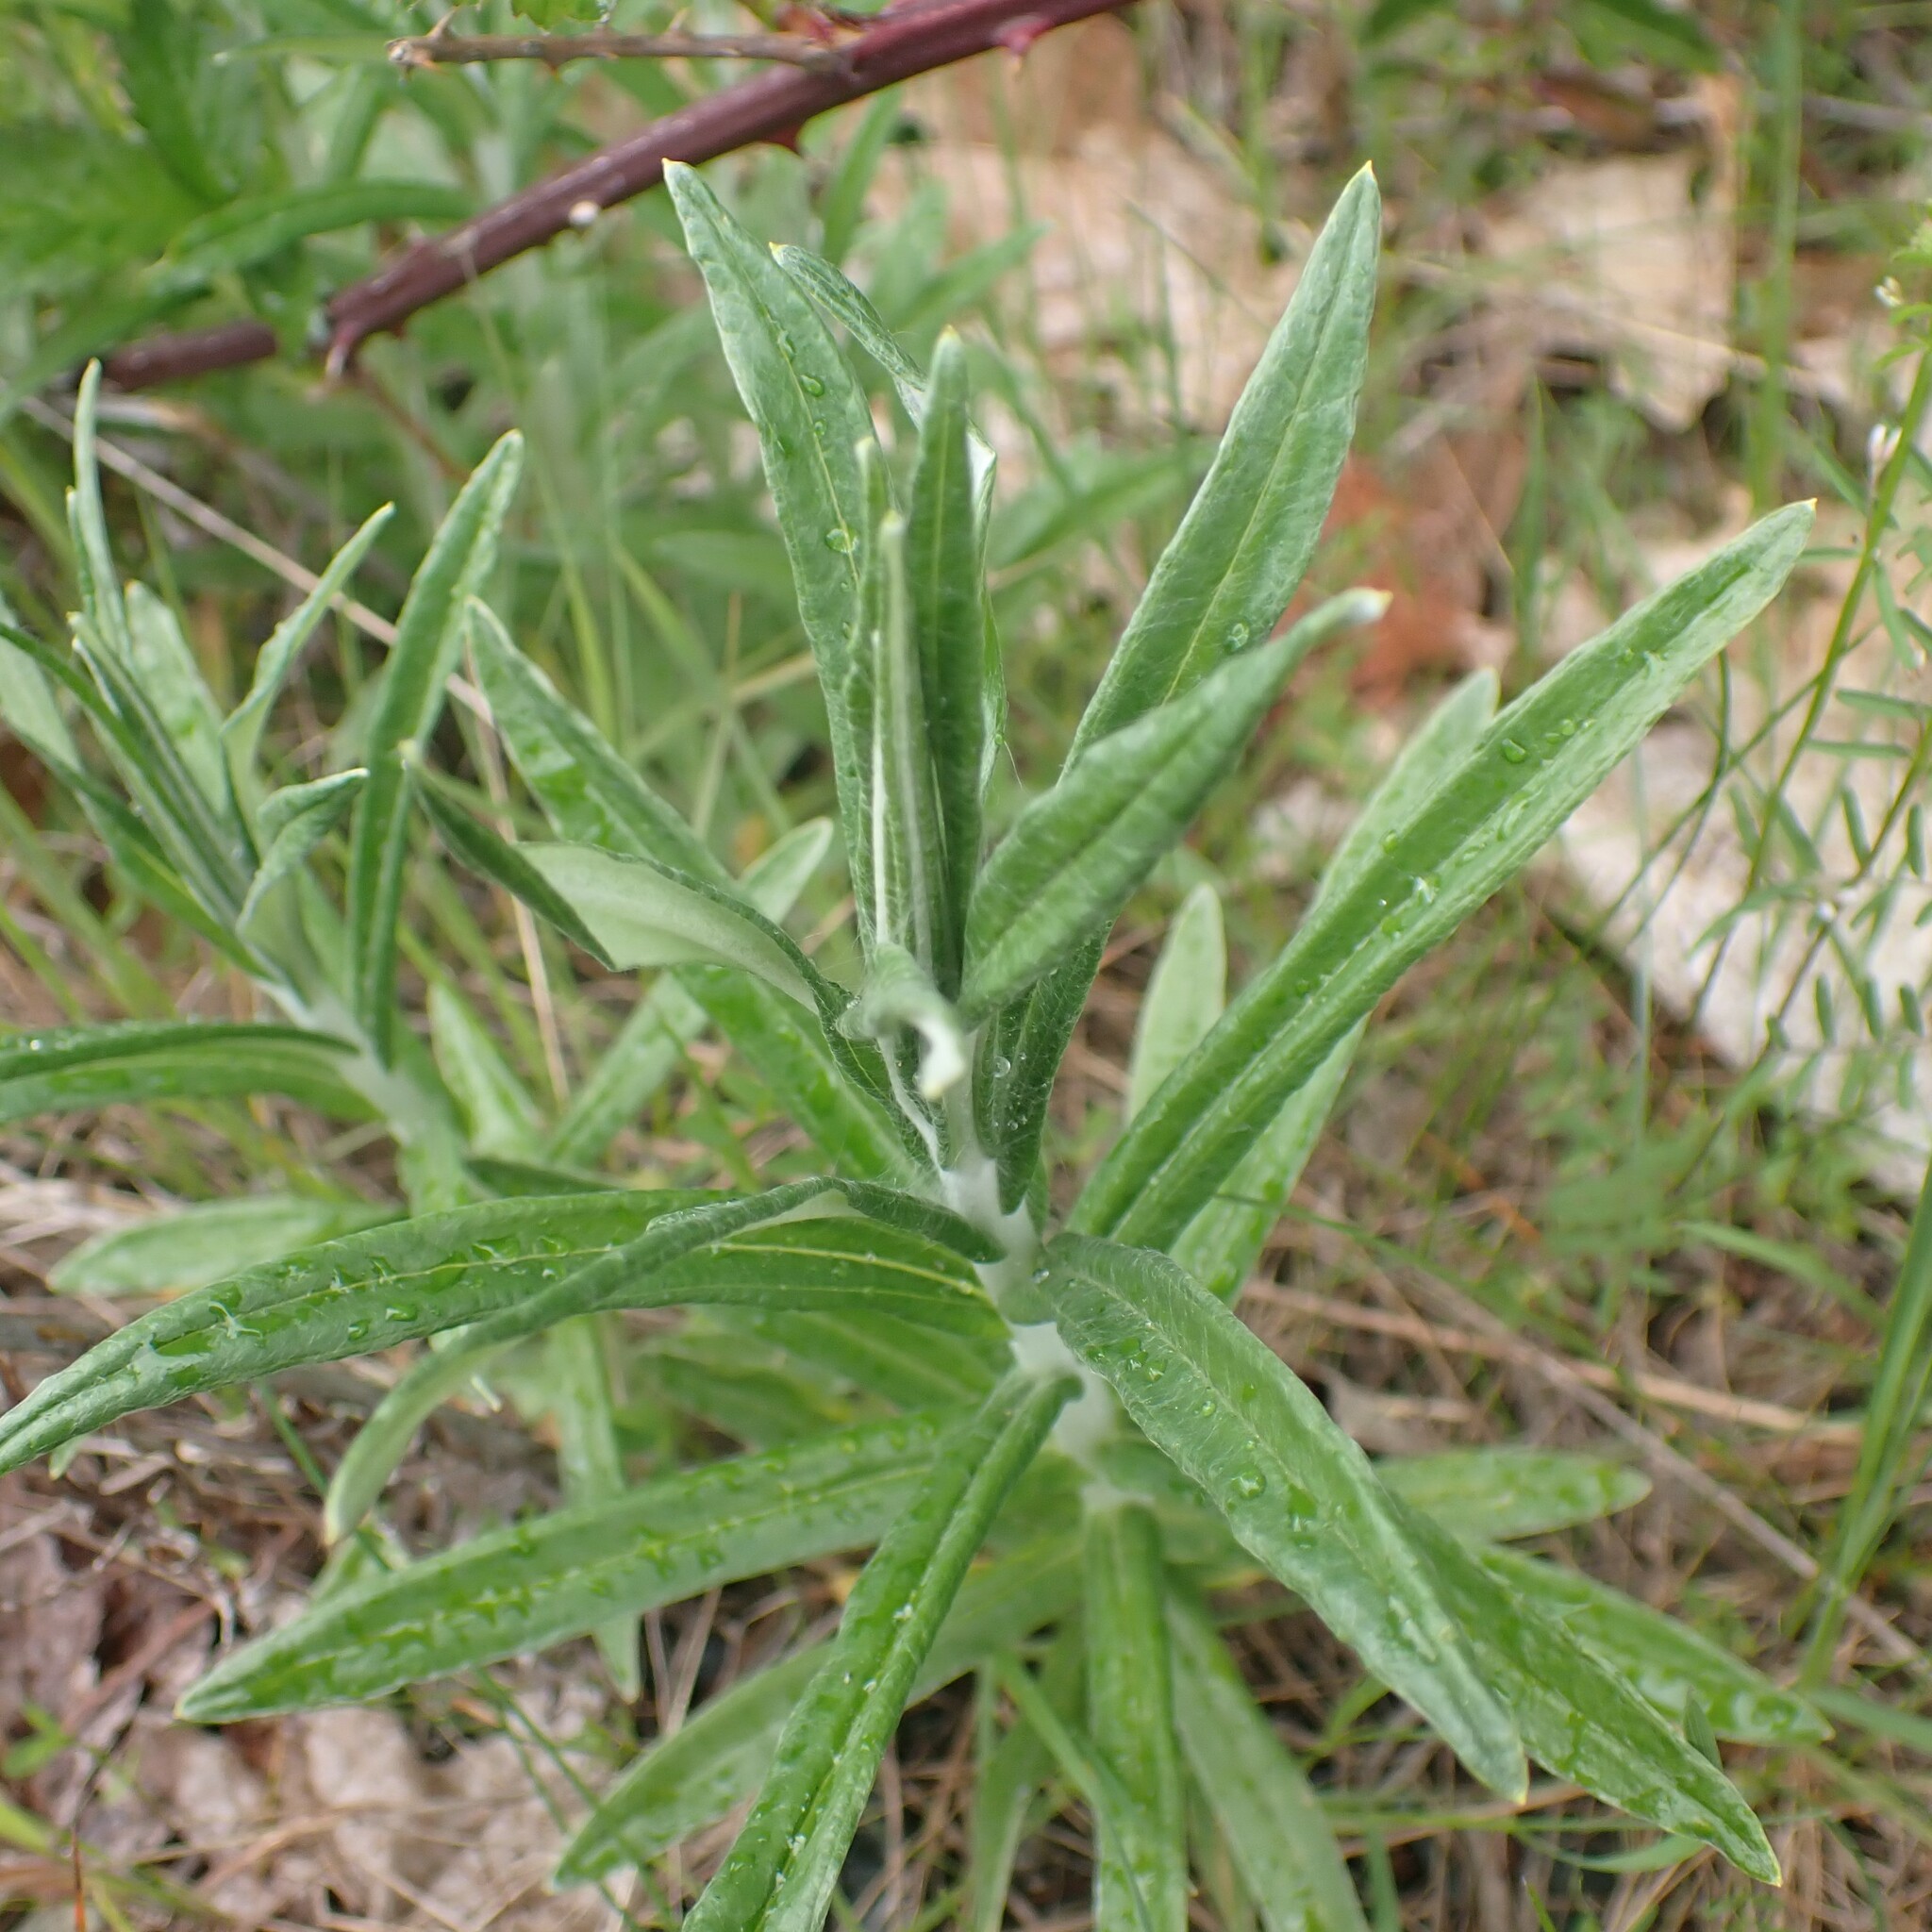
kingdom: Plantae
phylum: Tracheophyta
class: Magnoliopsida
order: Asterales
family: Asteraceae
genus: Anaphalis
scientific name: Anaphalis margaritacea
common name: Pearly everlasting
